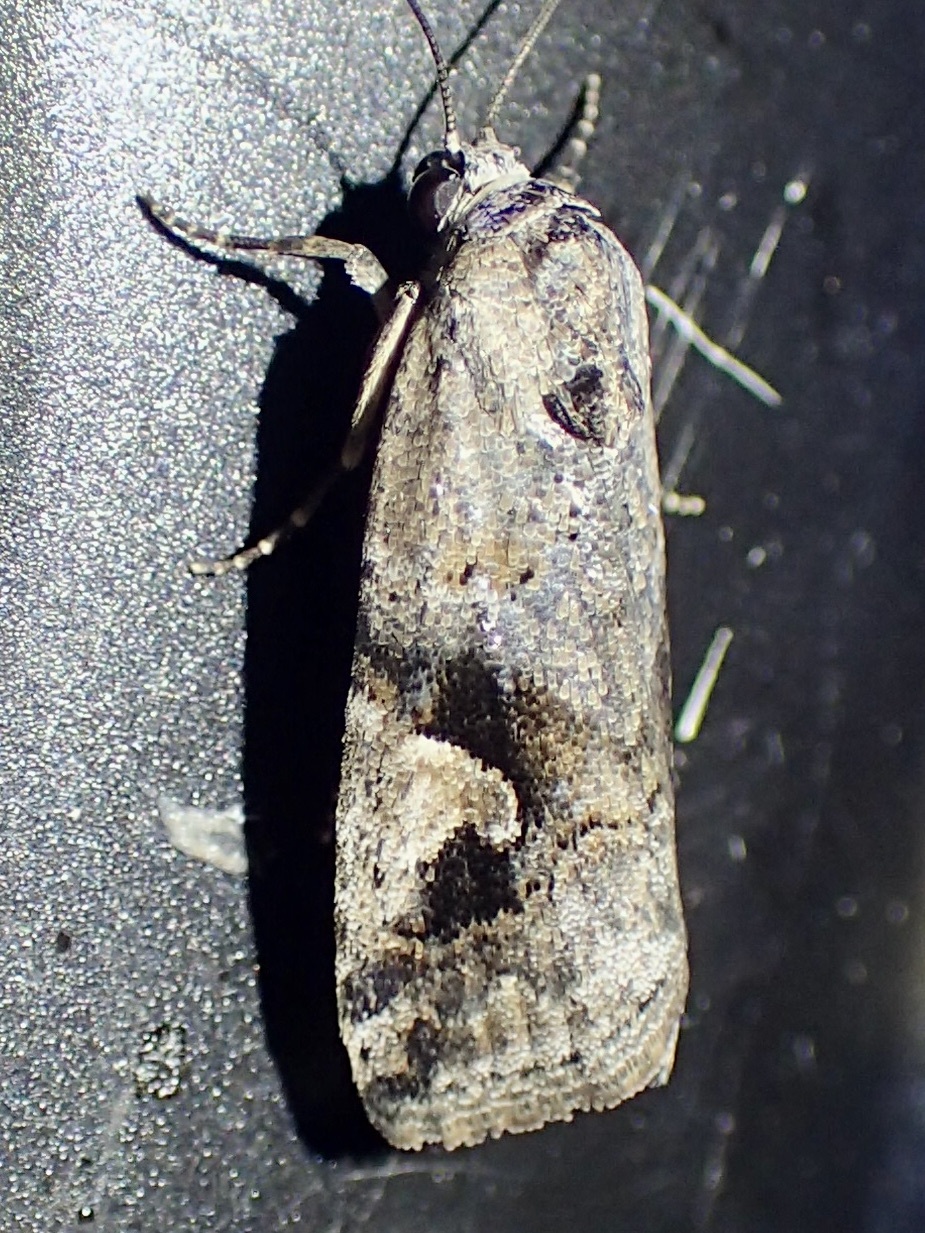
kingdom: Animalia
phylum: Arthropoda
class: Insecta
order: Lepidoptera
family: Noctuidae
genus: Metaponpneumata
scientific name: Metaponpneumata rogenhoferi
